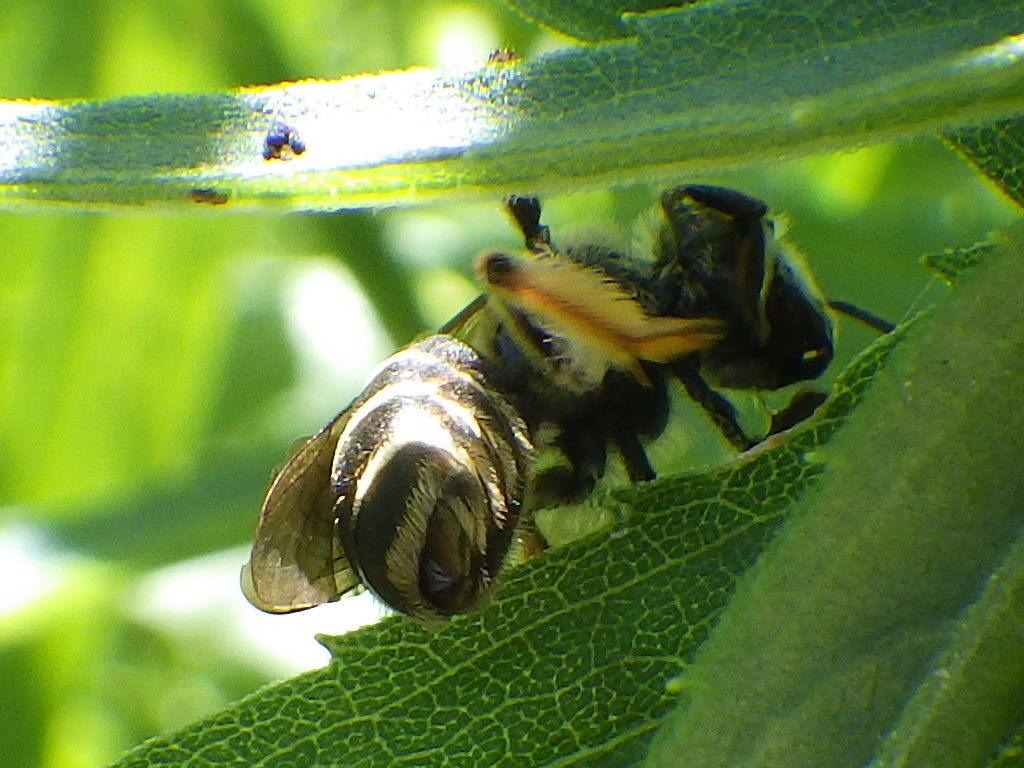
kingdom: Animalia
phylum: Arthropoda
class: Insecta
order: Hymenoptera
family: Andrenidae
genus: Andrena
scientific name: Andrena wilkella
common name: Wilke's mining bee
